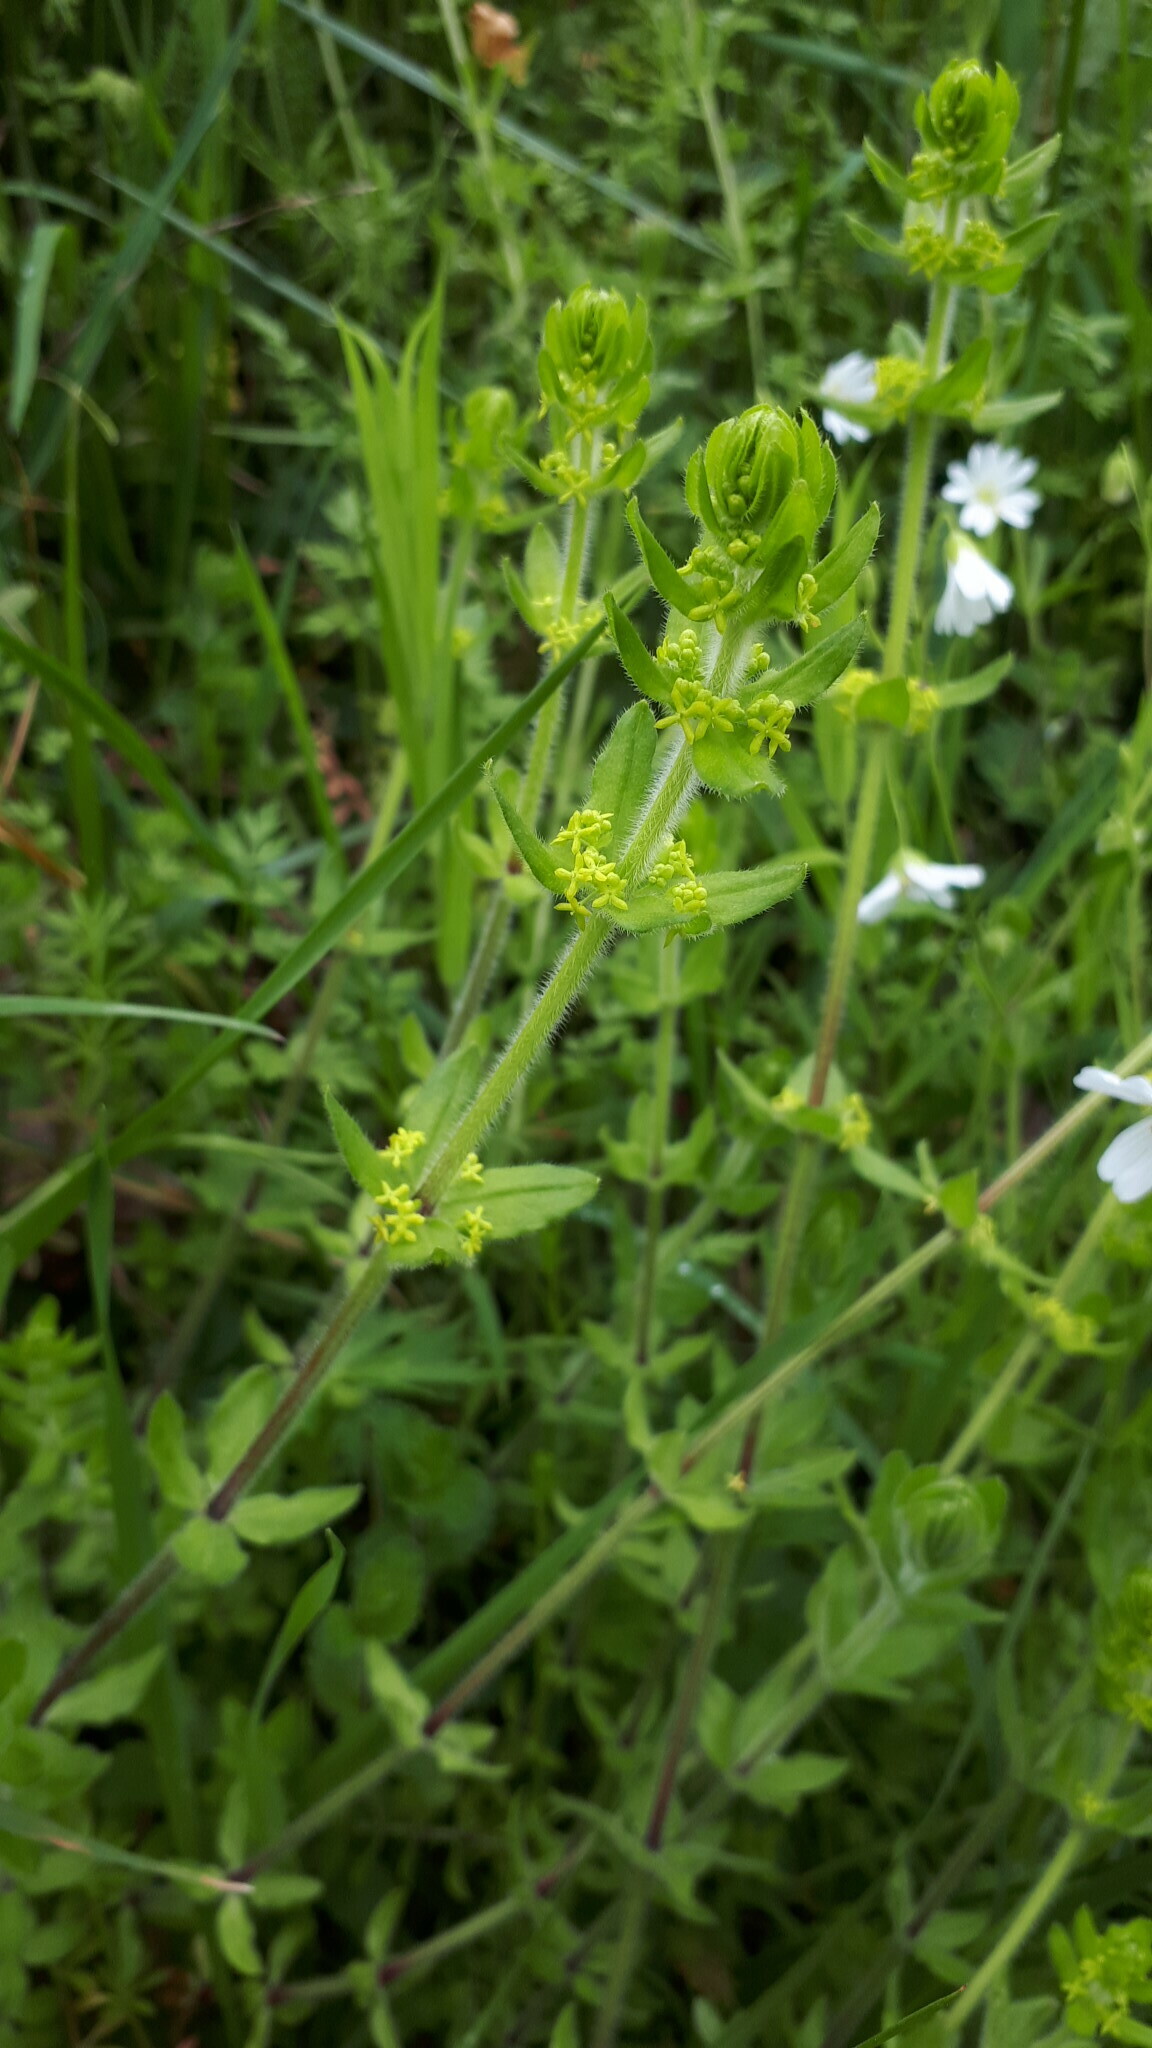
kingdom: Plantae
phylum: Tracheophyta
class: Magnoliopsida
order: Gentianales
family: Rubiaceae
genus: Cruciata
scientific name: Cruciata laevipes
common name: Crosswort
